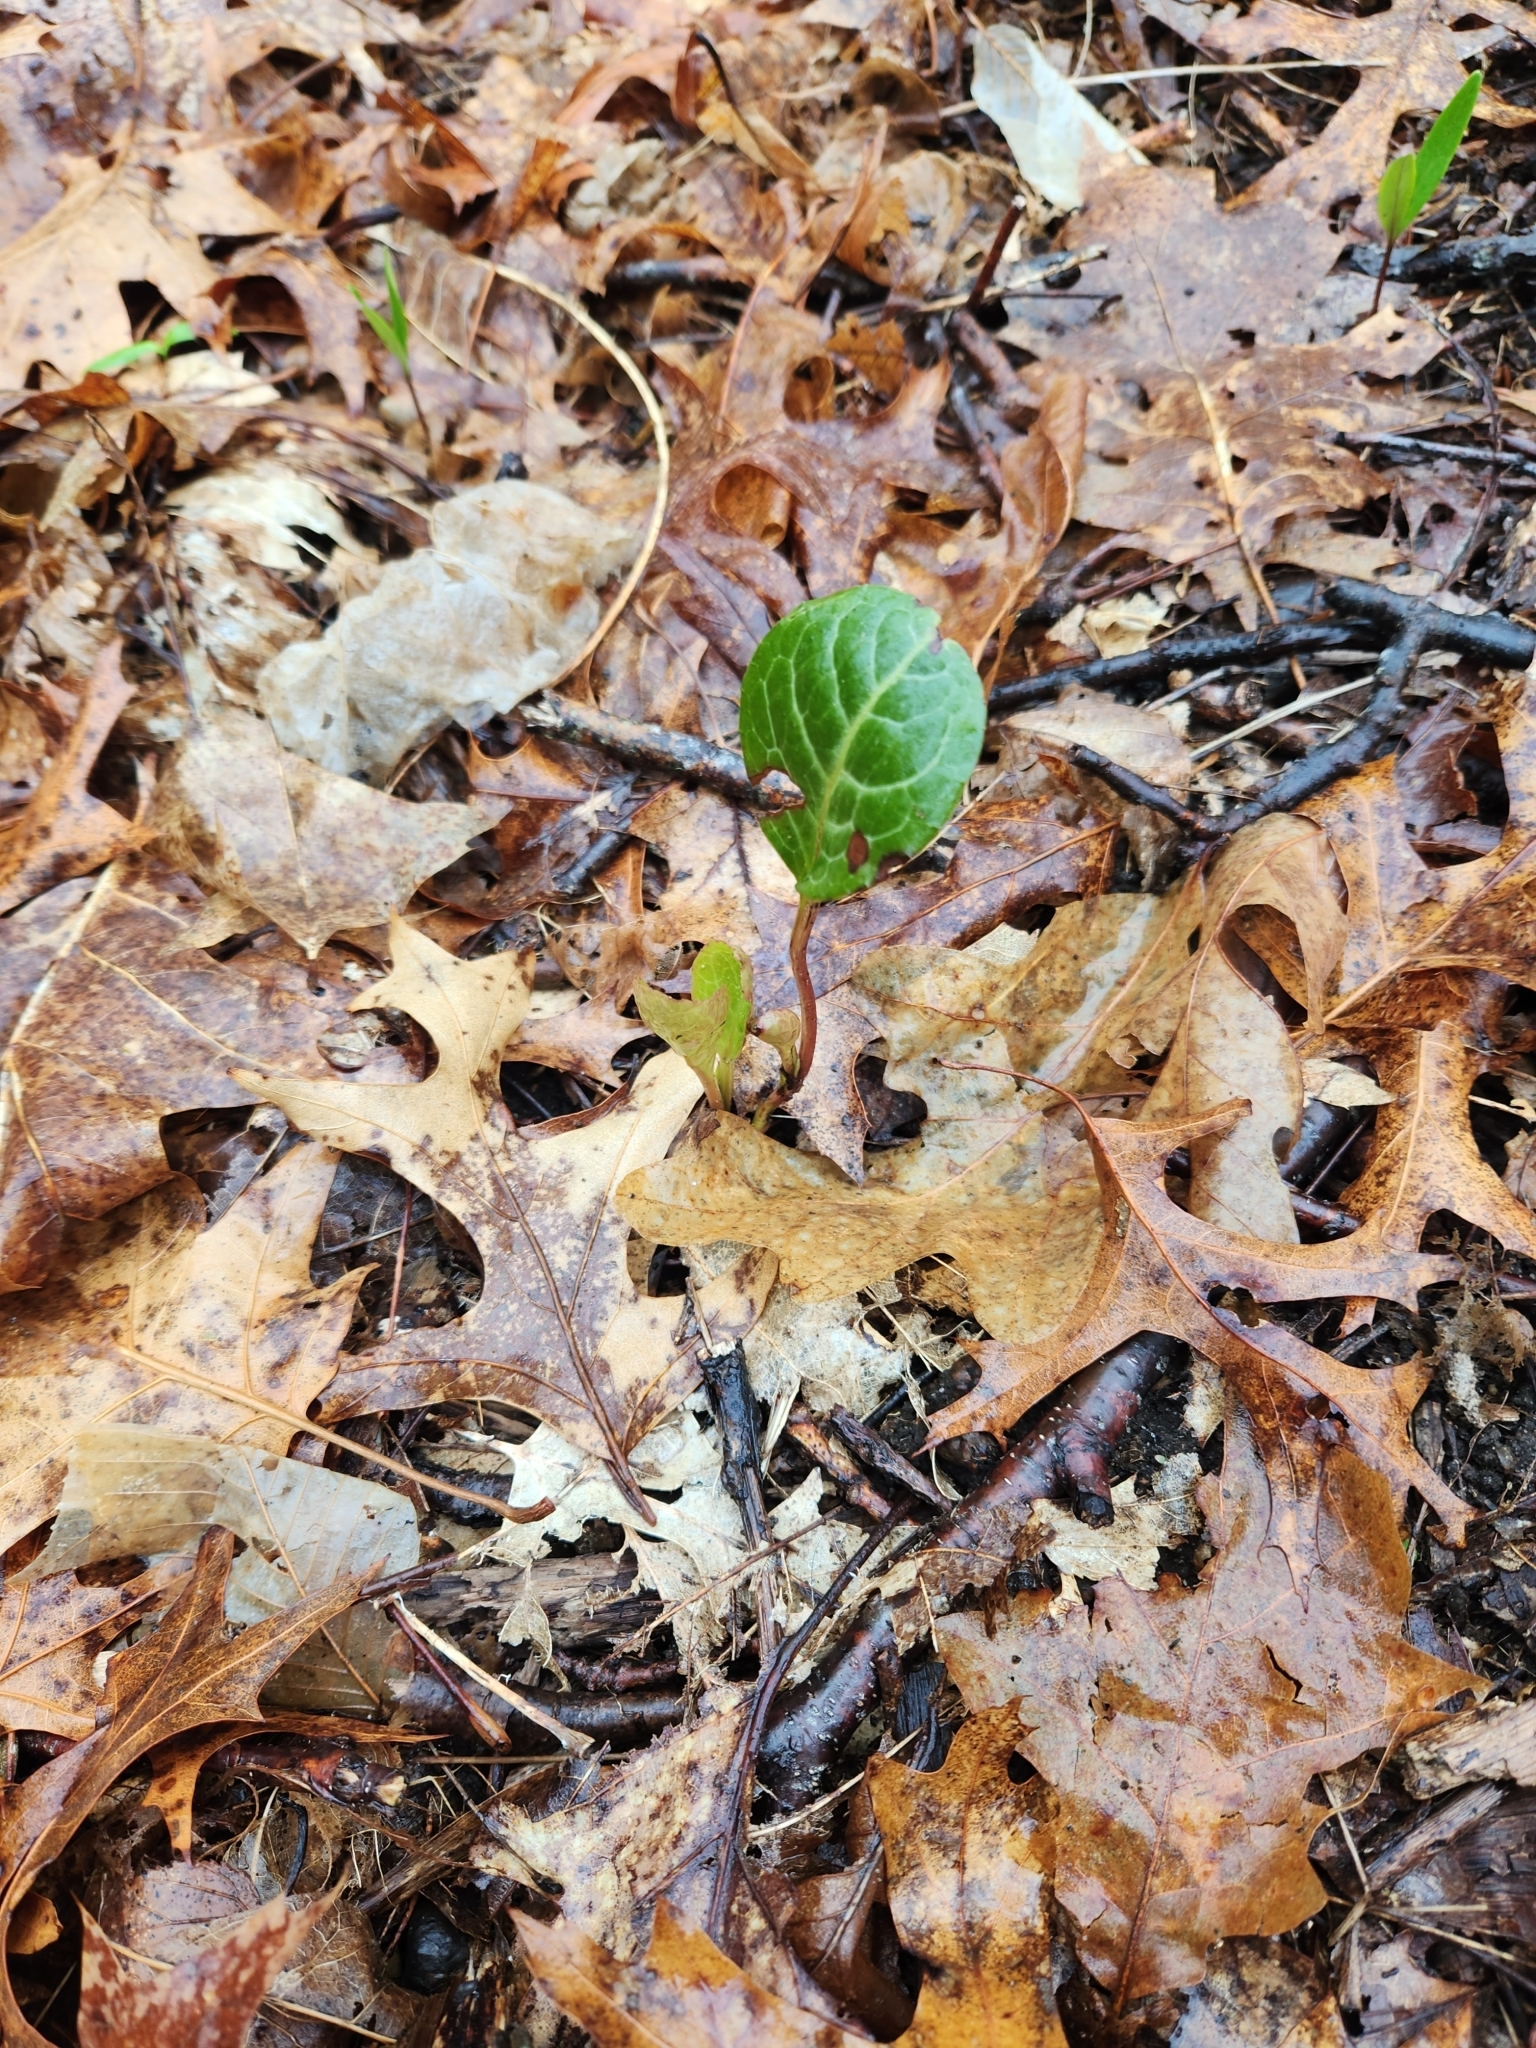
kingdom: Plantae
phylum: Tracheophyta
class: Magnoliopsida
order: Ericales
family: Ericaceae
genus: Pyrola
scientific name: Pyrola americana
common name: American wintergreen
